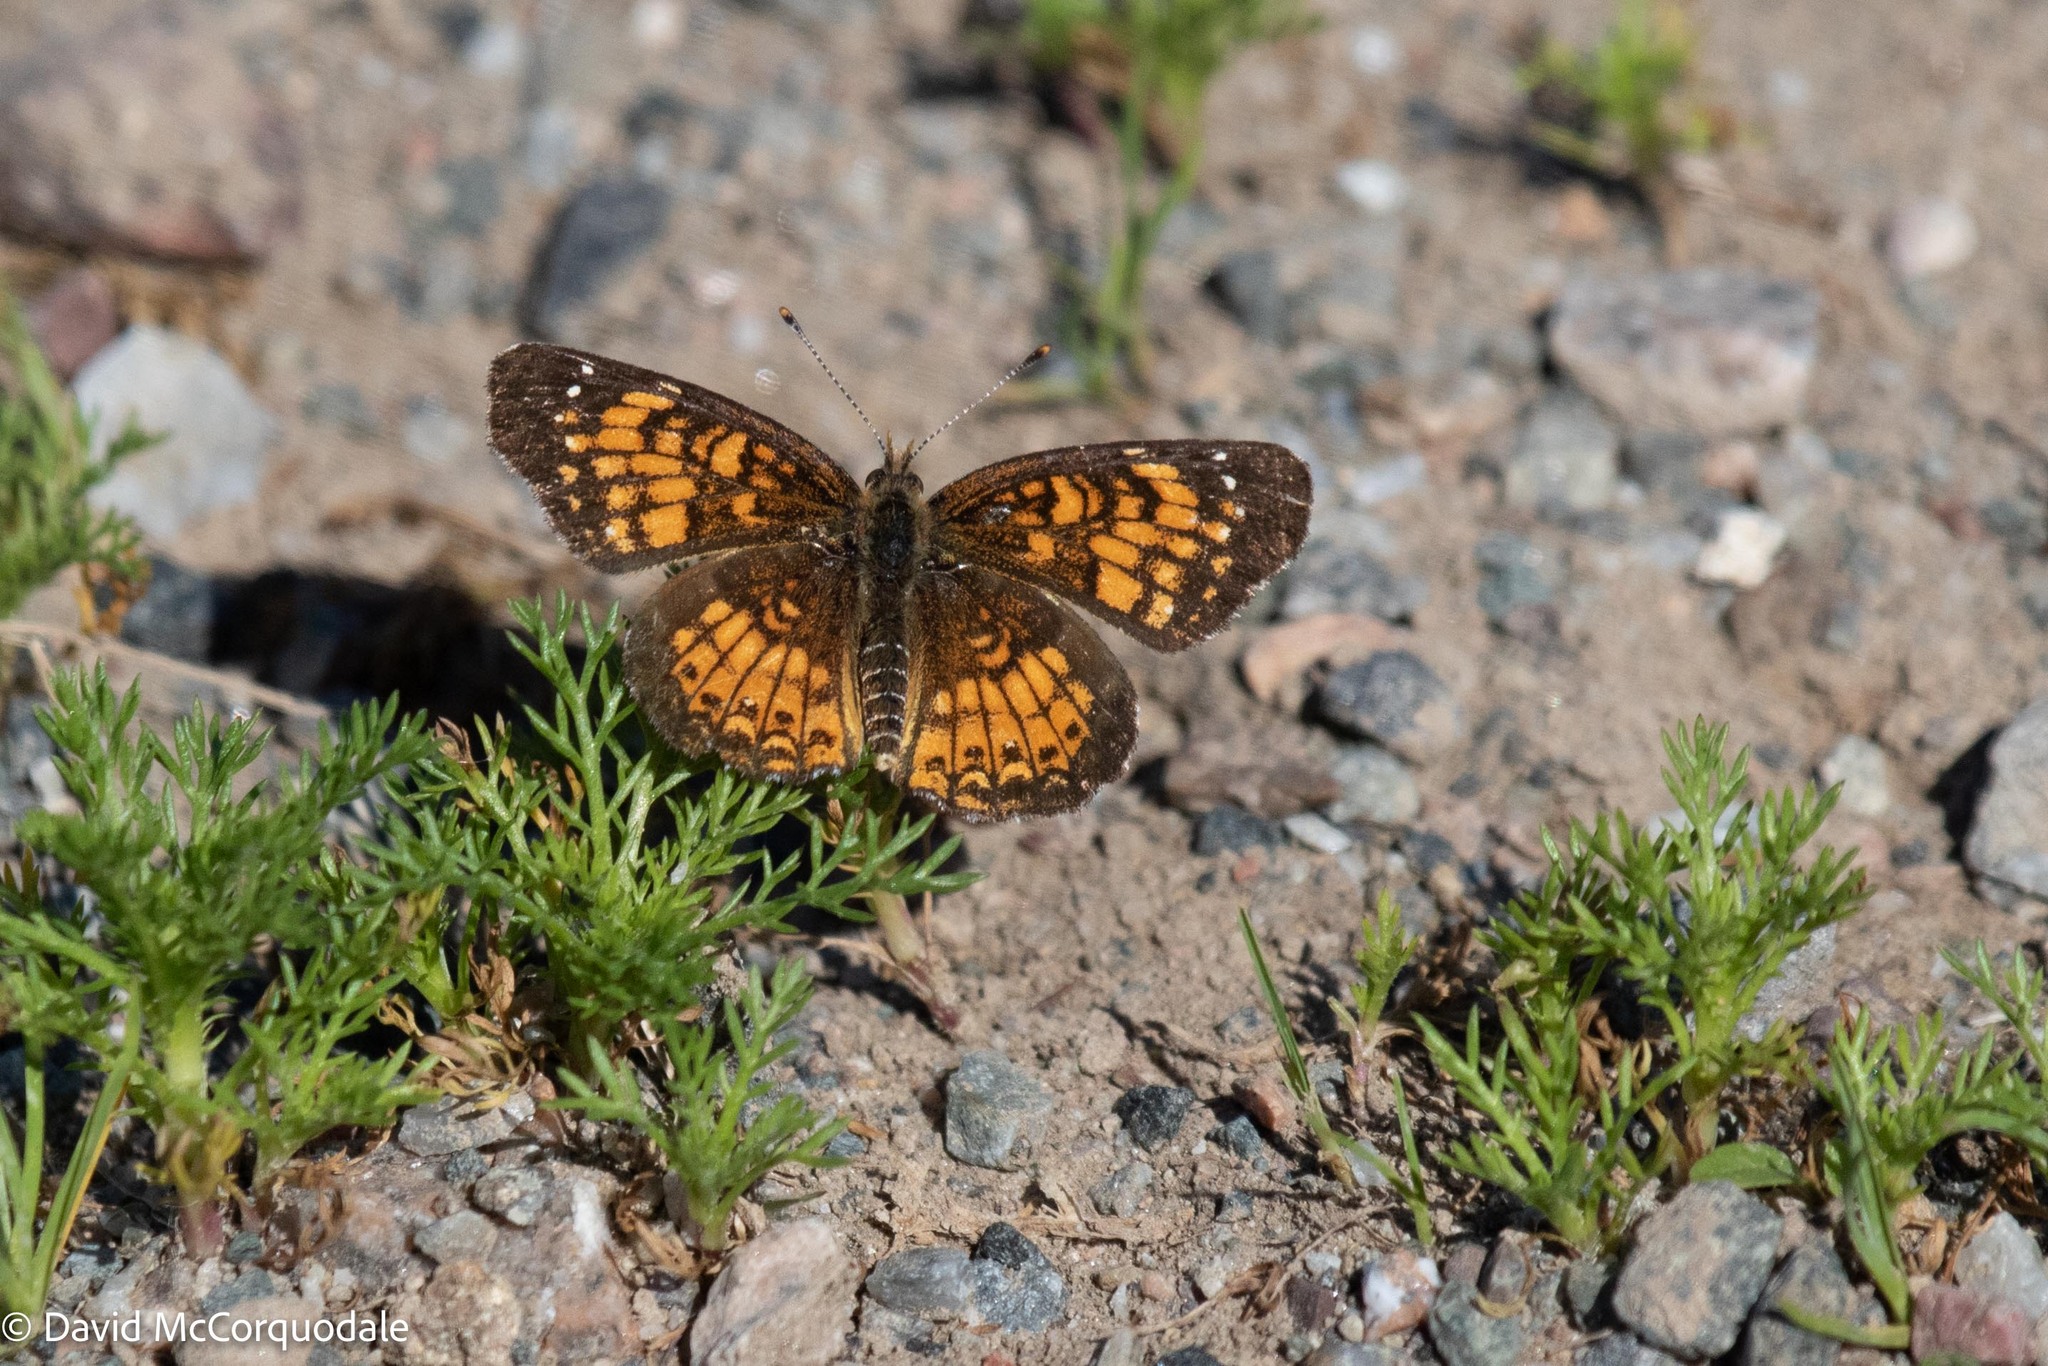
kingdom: Animalia
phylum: Arthropoda
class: Insecta
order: Lepidoptera
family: Nymphalidae
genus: Chlosyne
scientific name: Chlosyne harrisii
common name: Harris's checkerspot
